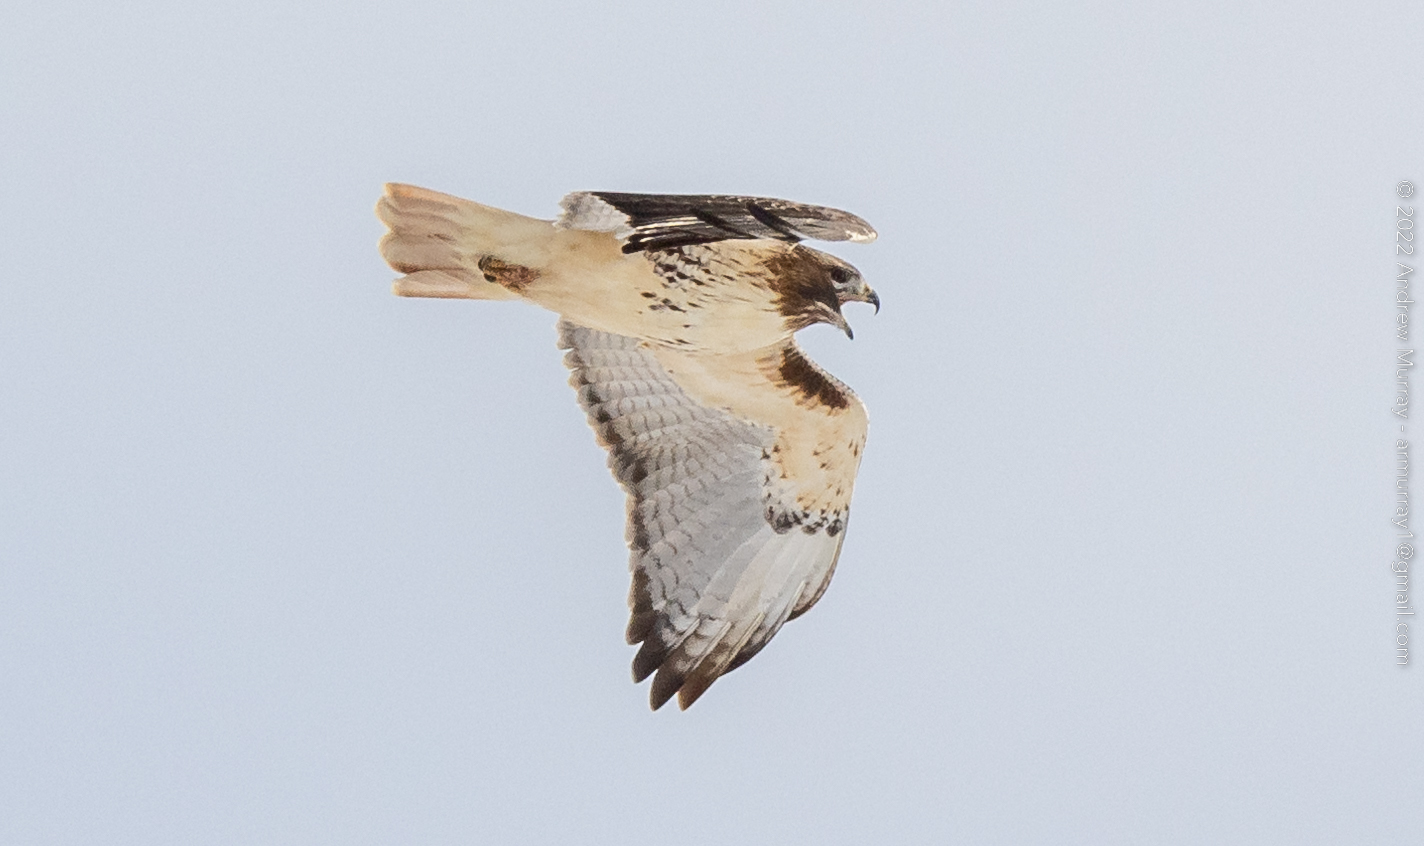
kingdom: Animalia
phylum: Chordata
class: Aves
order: Accipitriformes
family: Accipitridae
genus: Buteo
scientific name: Buteo jamaicensis
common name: Red-tailed hawk
